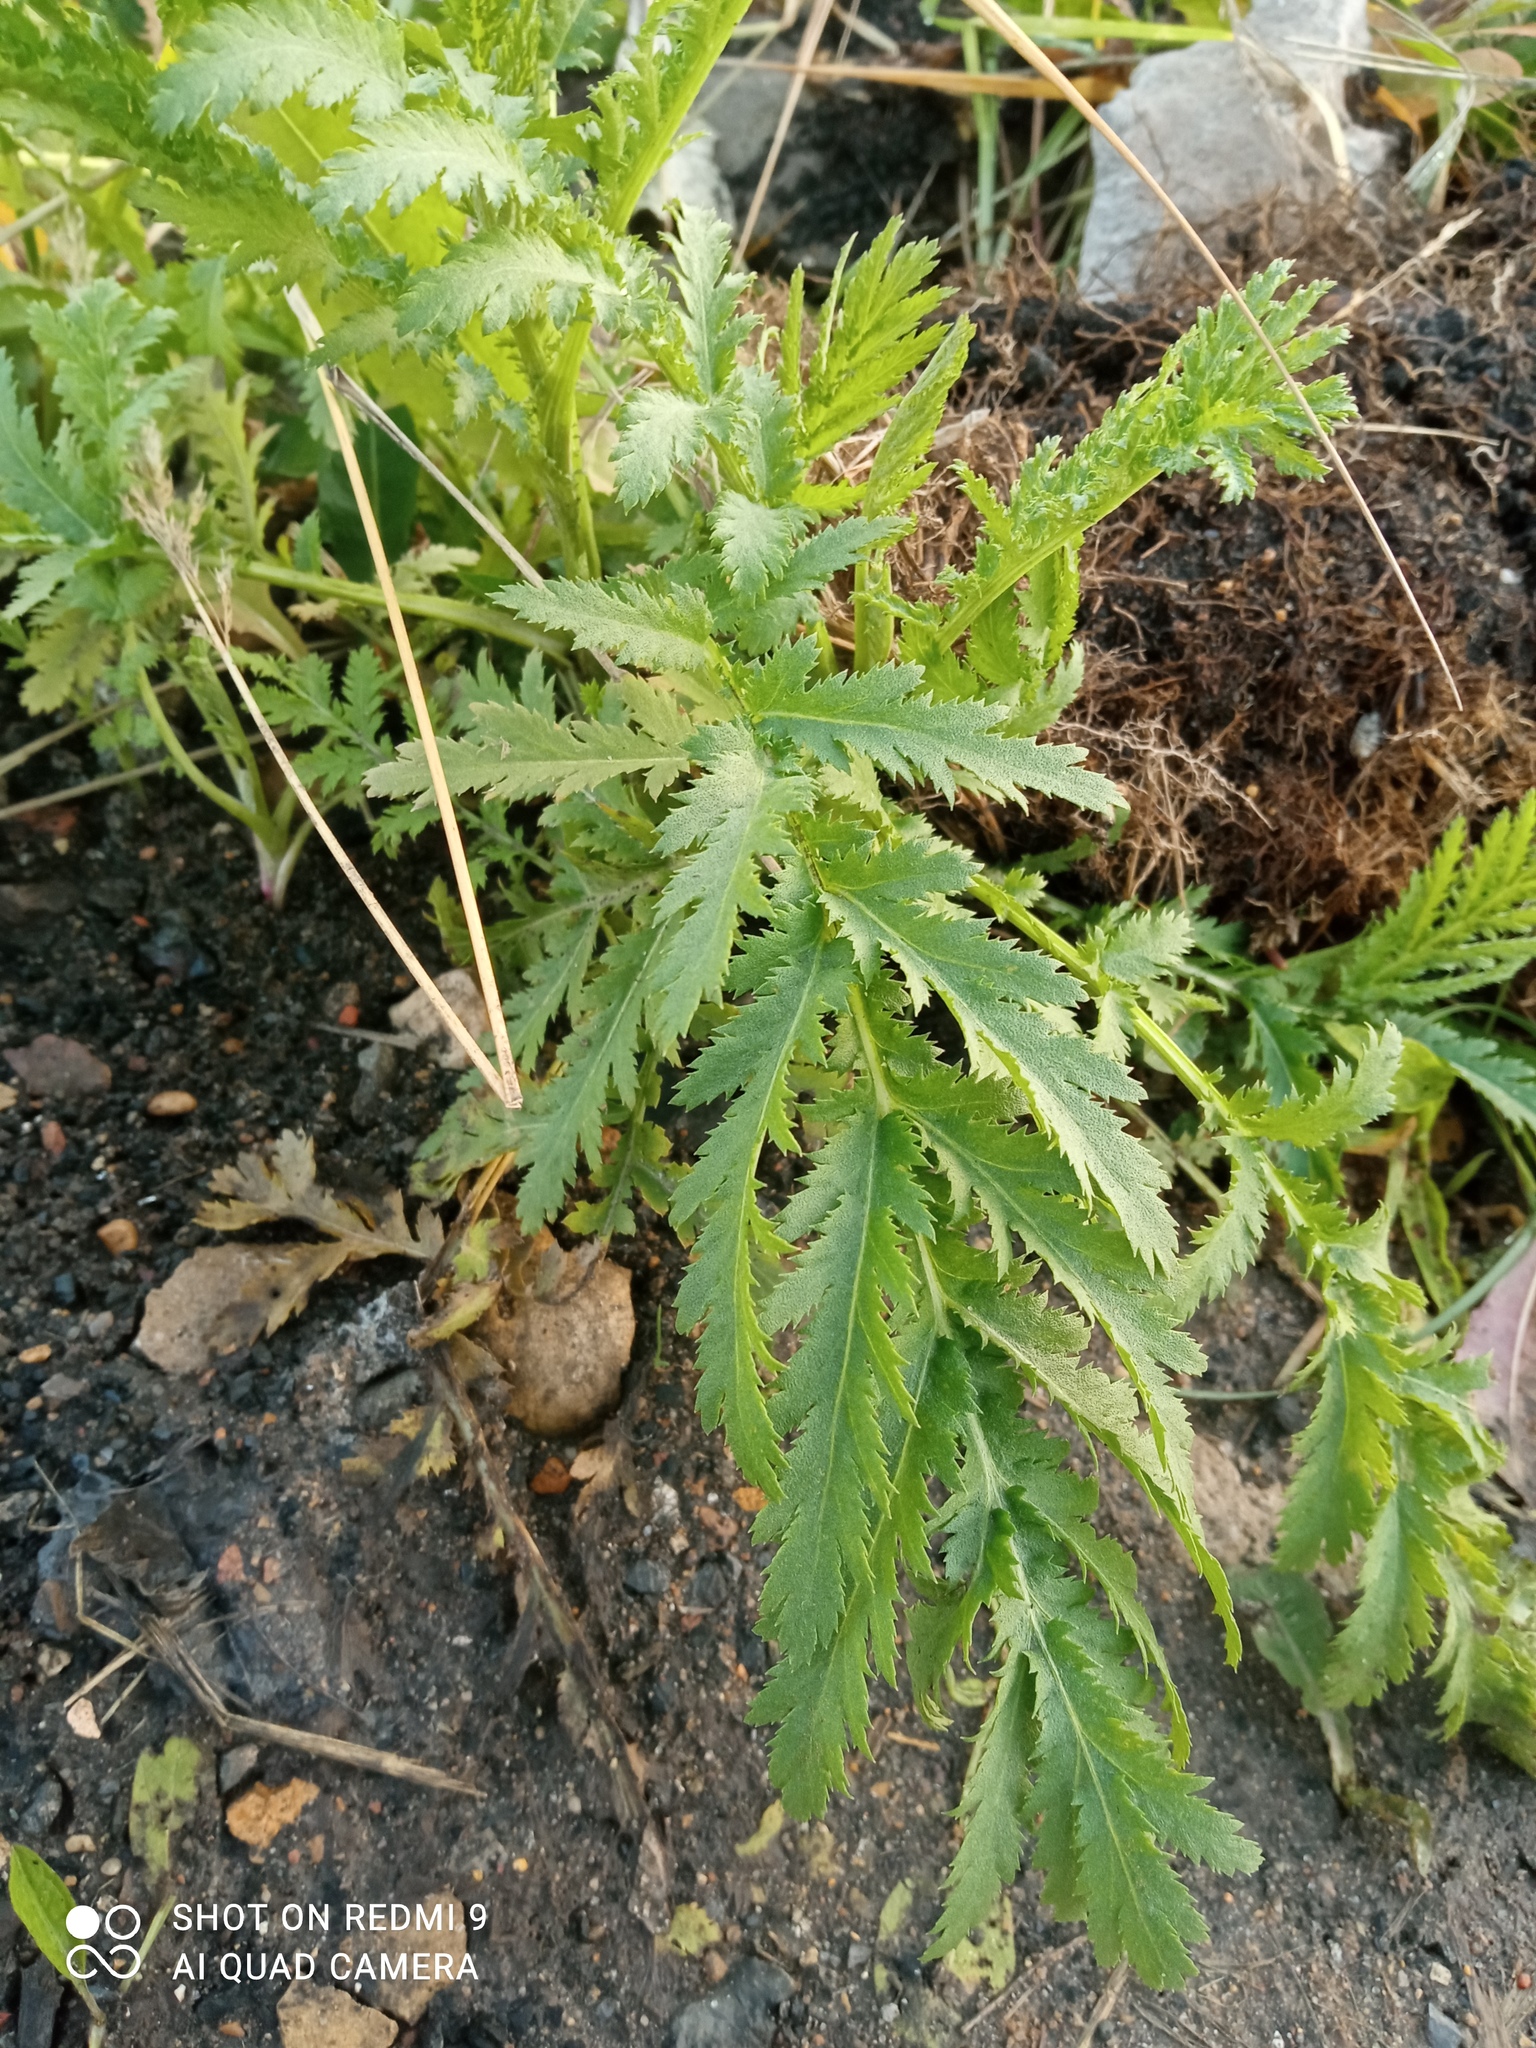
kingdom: Plantae
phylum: Tracheophyta
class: Magnoliopsida
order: Asterales
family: Asteraceae
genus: Tanacetum
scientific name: Tanacetum vulgare
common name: Common tansy
